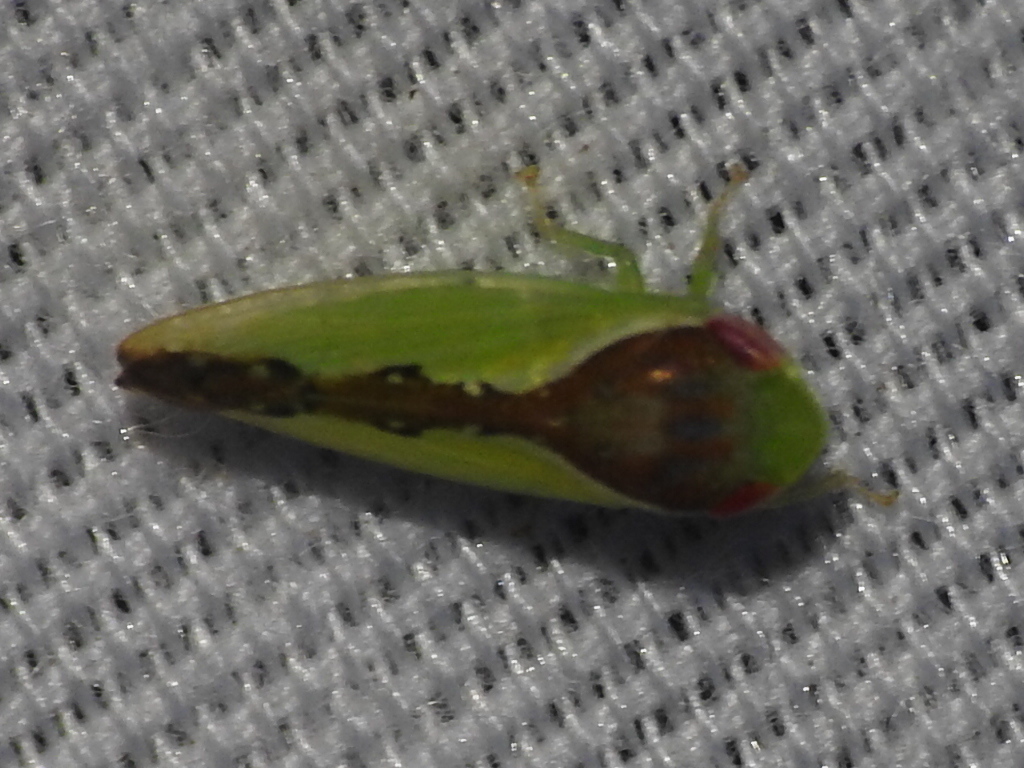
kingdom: Animalia
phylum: Arthropoda
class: Insecta
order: Hemiptera
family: Cicadellidae
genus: Omansobara ing
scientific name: Omansobara ing Omansobara palliolata
